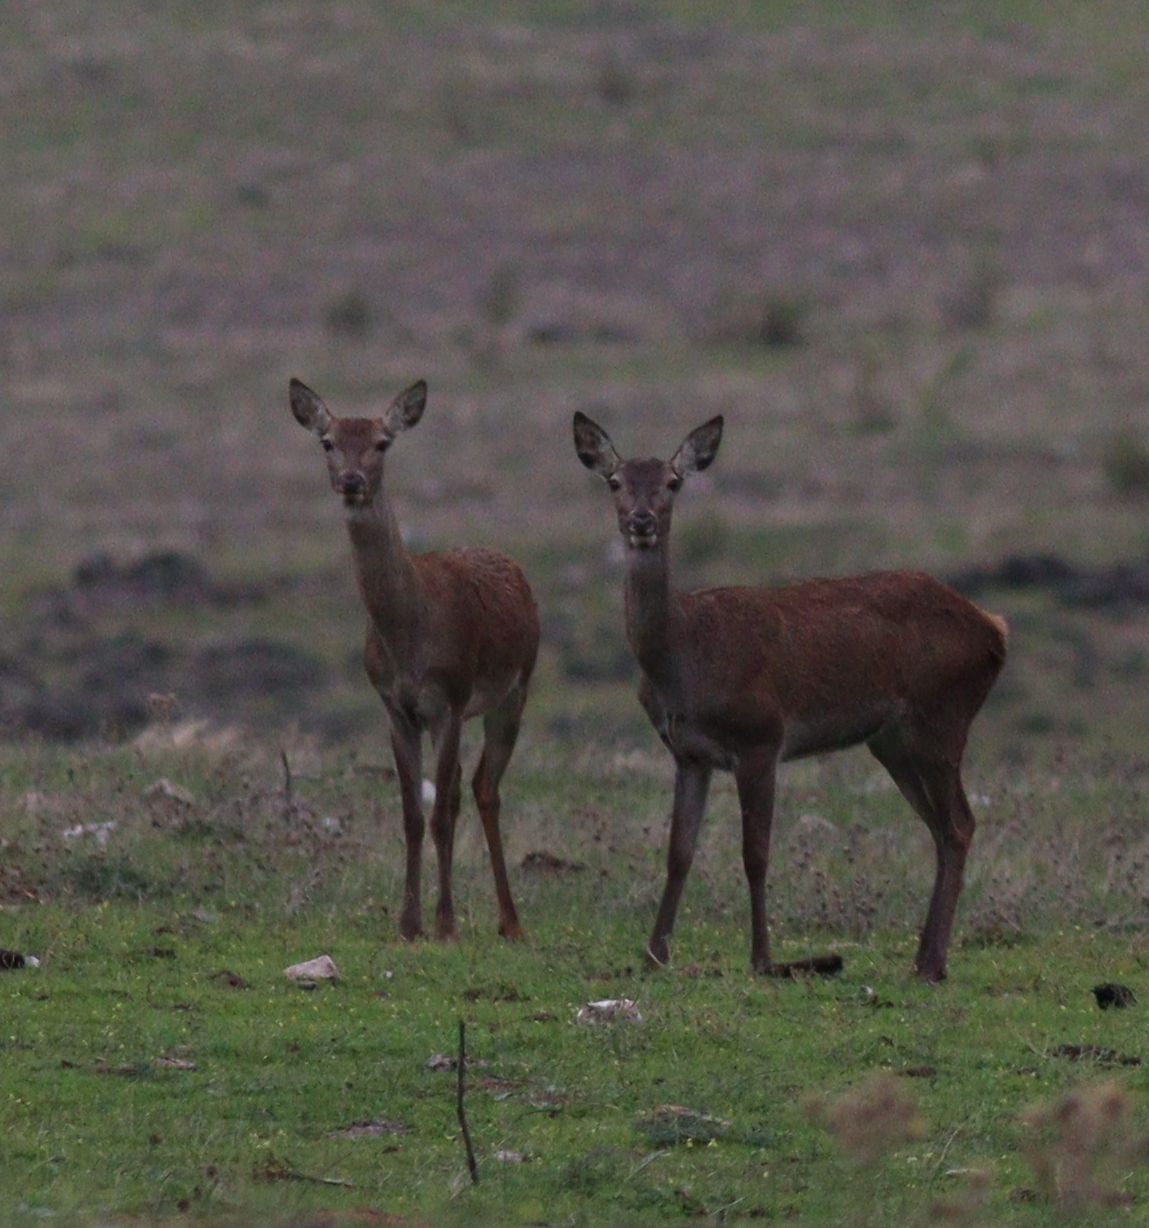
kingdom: Animalia
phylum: Chordata
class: Mammalia
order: Artiodactyla
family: Cervidae
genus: Cervus
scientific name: Cervus elaphus
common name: Red deer
